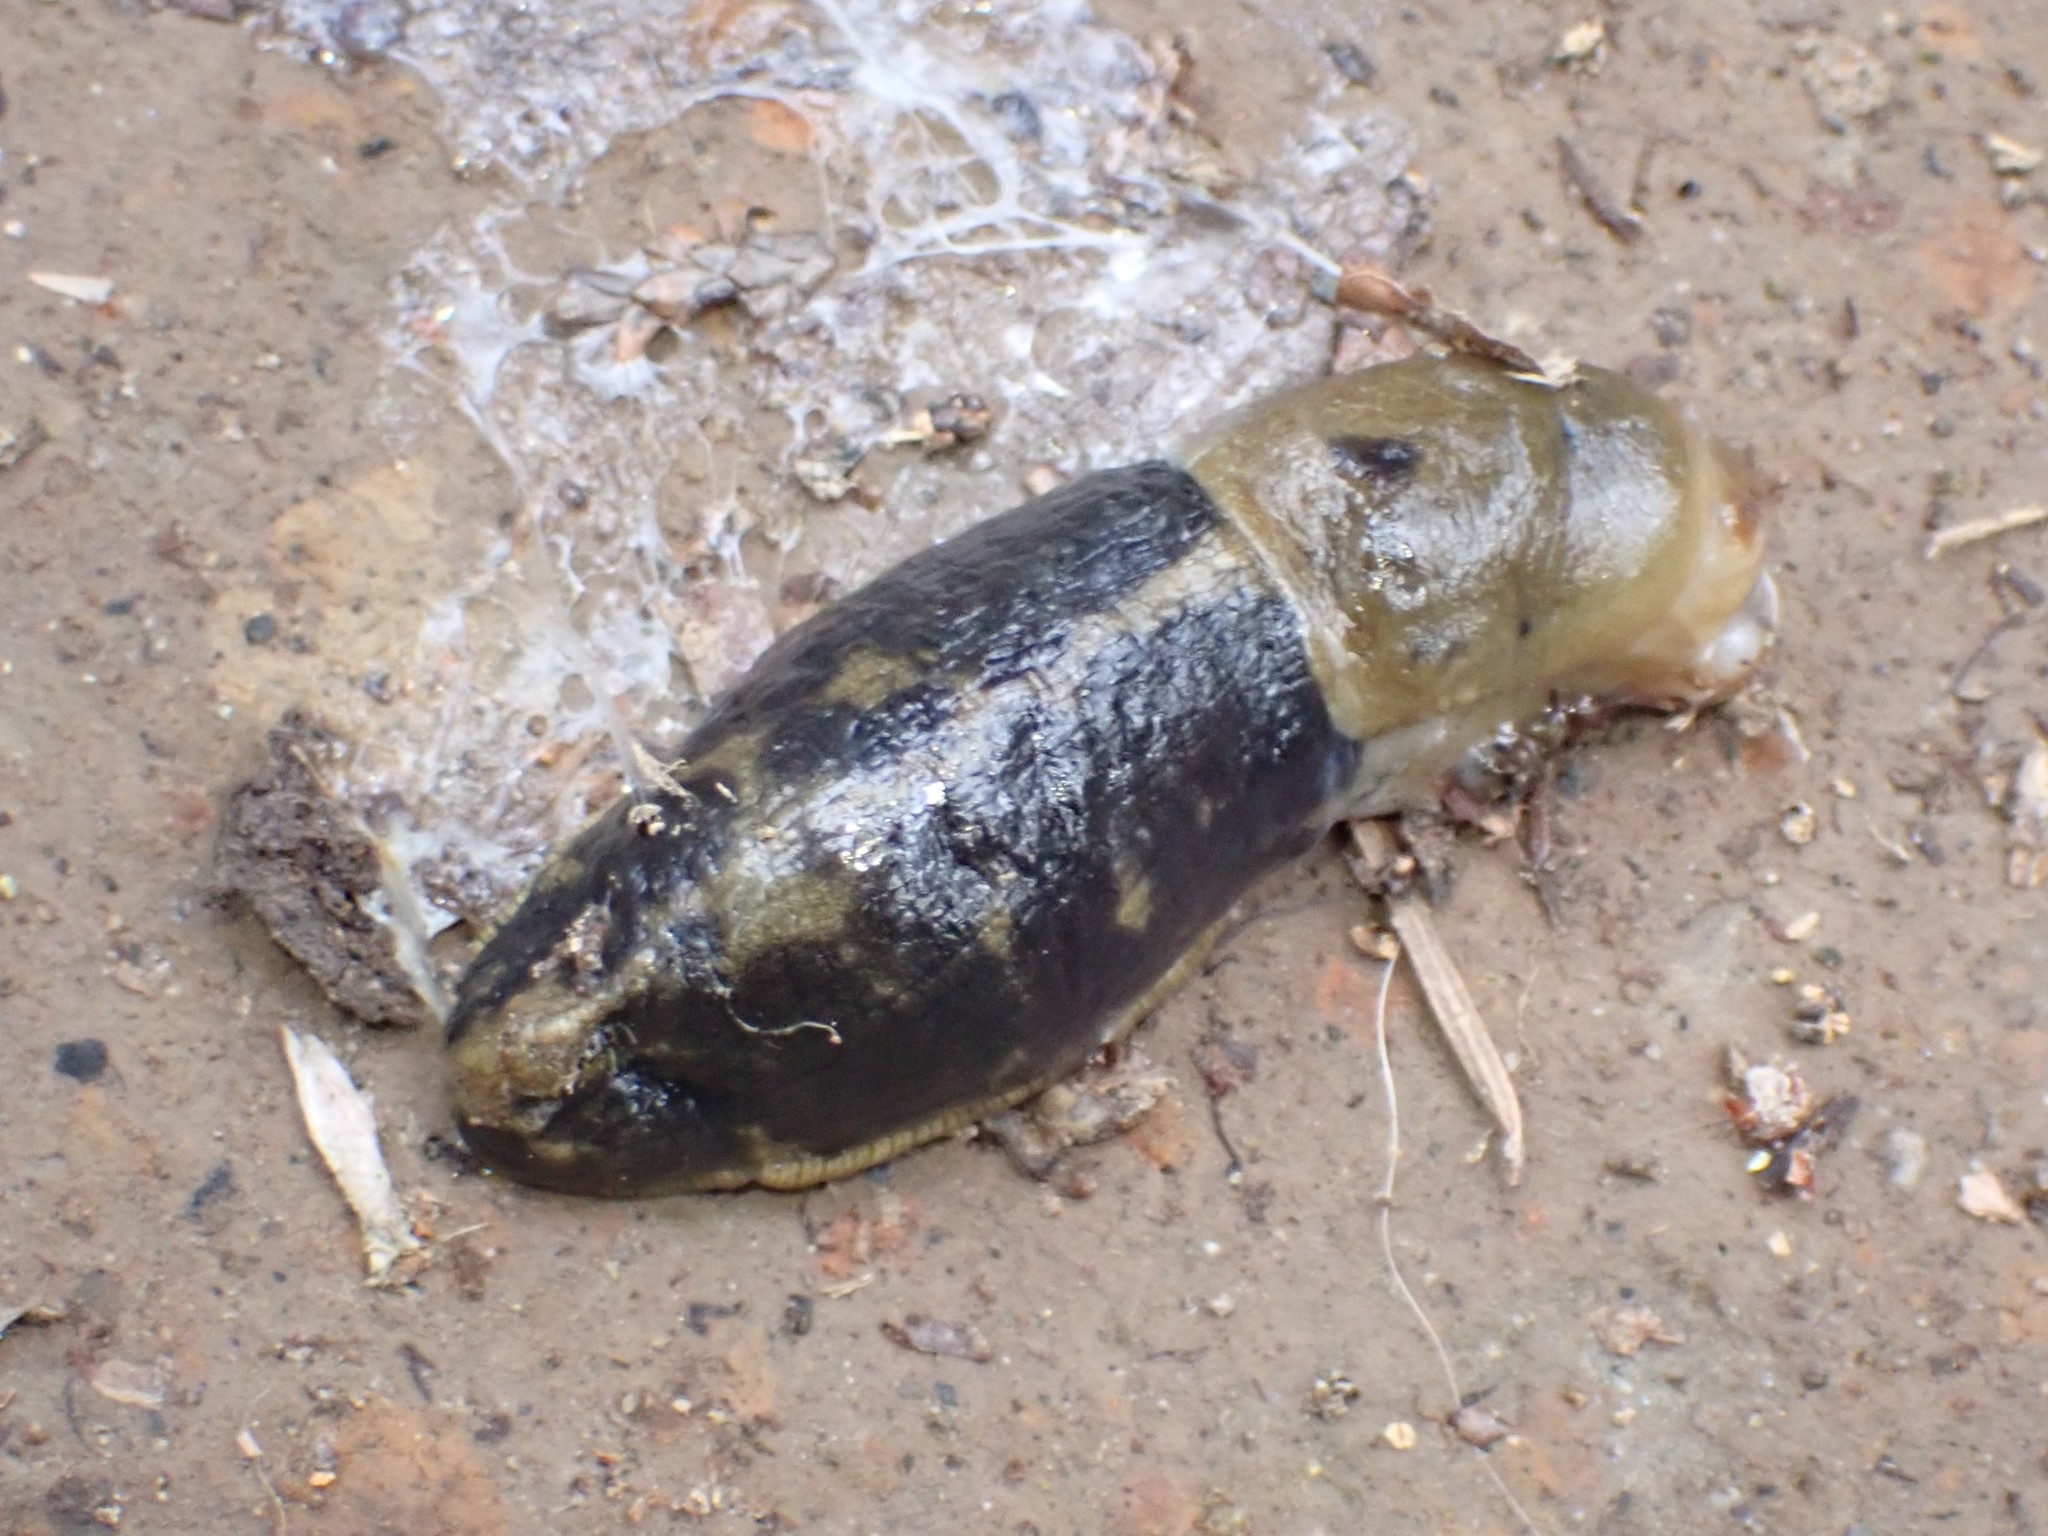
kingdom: Animalia
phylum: Mollusca
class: Gastropoda
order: Stylommatophora
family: Ariolimacidae
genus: Ariolimax
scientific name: Ariolimax columbianus
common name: Pacific banana slug
